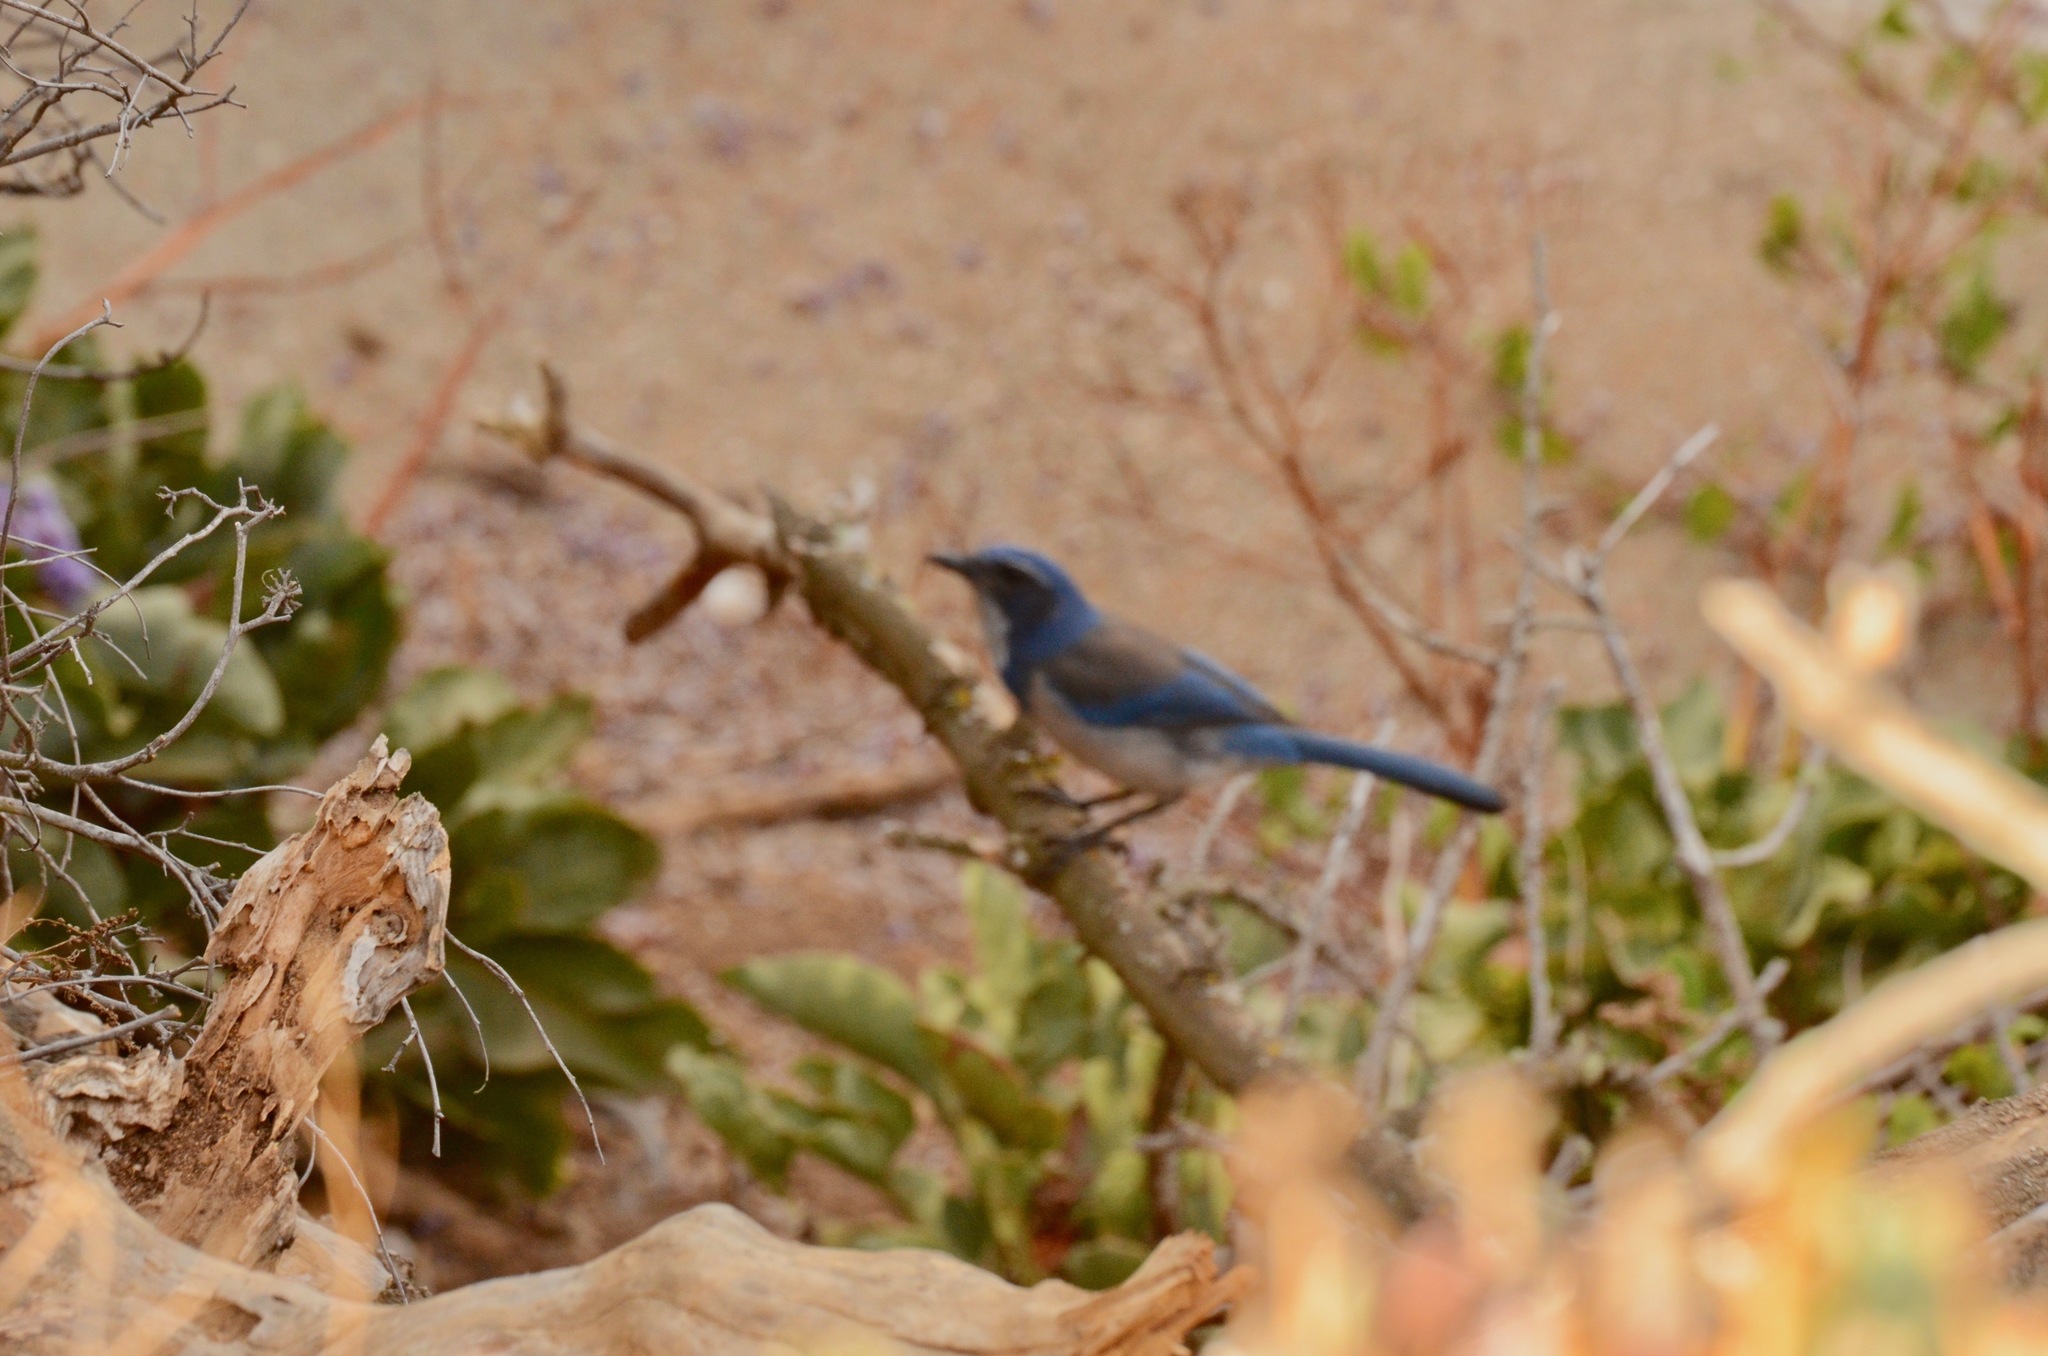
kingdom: Animalia
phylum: Chordata
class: Aves
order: Passeriformes
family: Corvidae
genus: Aphelocoma
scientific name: Aphelocoma californica
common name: California scrub-jay
